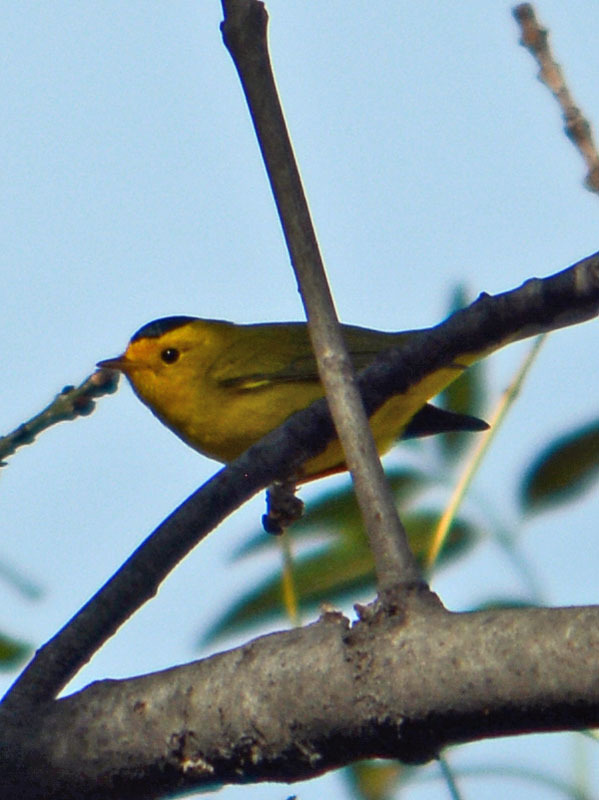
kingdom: Animalia
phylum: Chordata
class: Aves
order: Passeriformes
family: Parulidae
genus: Cardellina
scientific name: Cardellina pusilla
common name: Wilson's warbler
